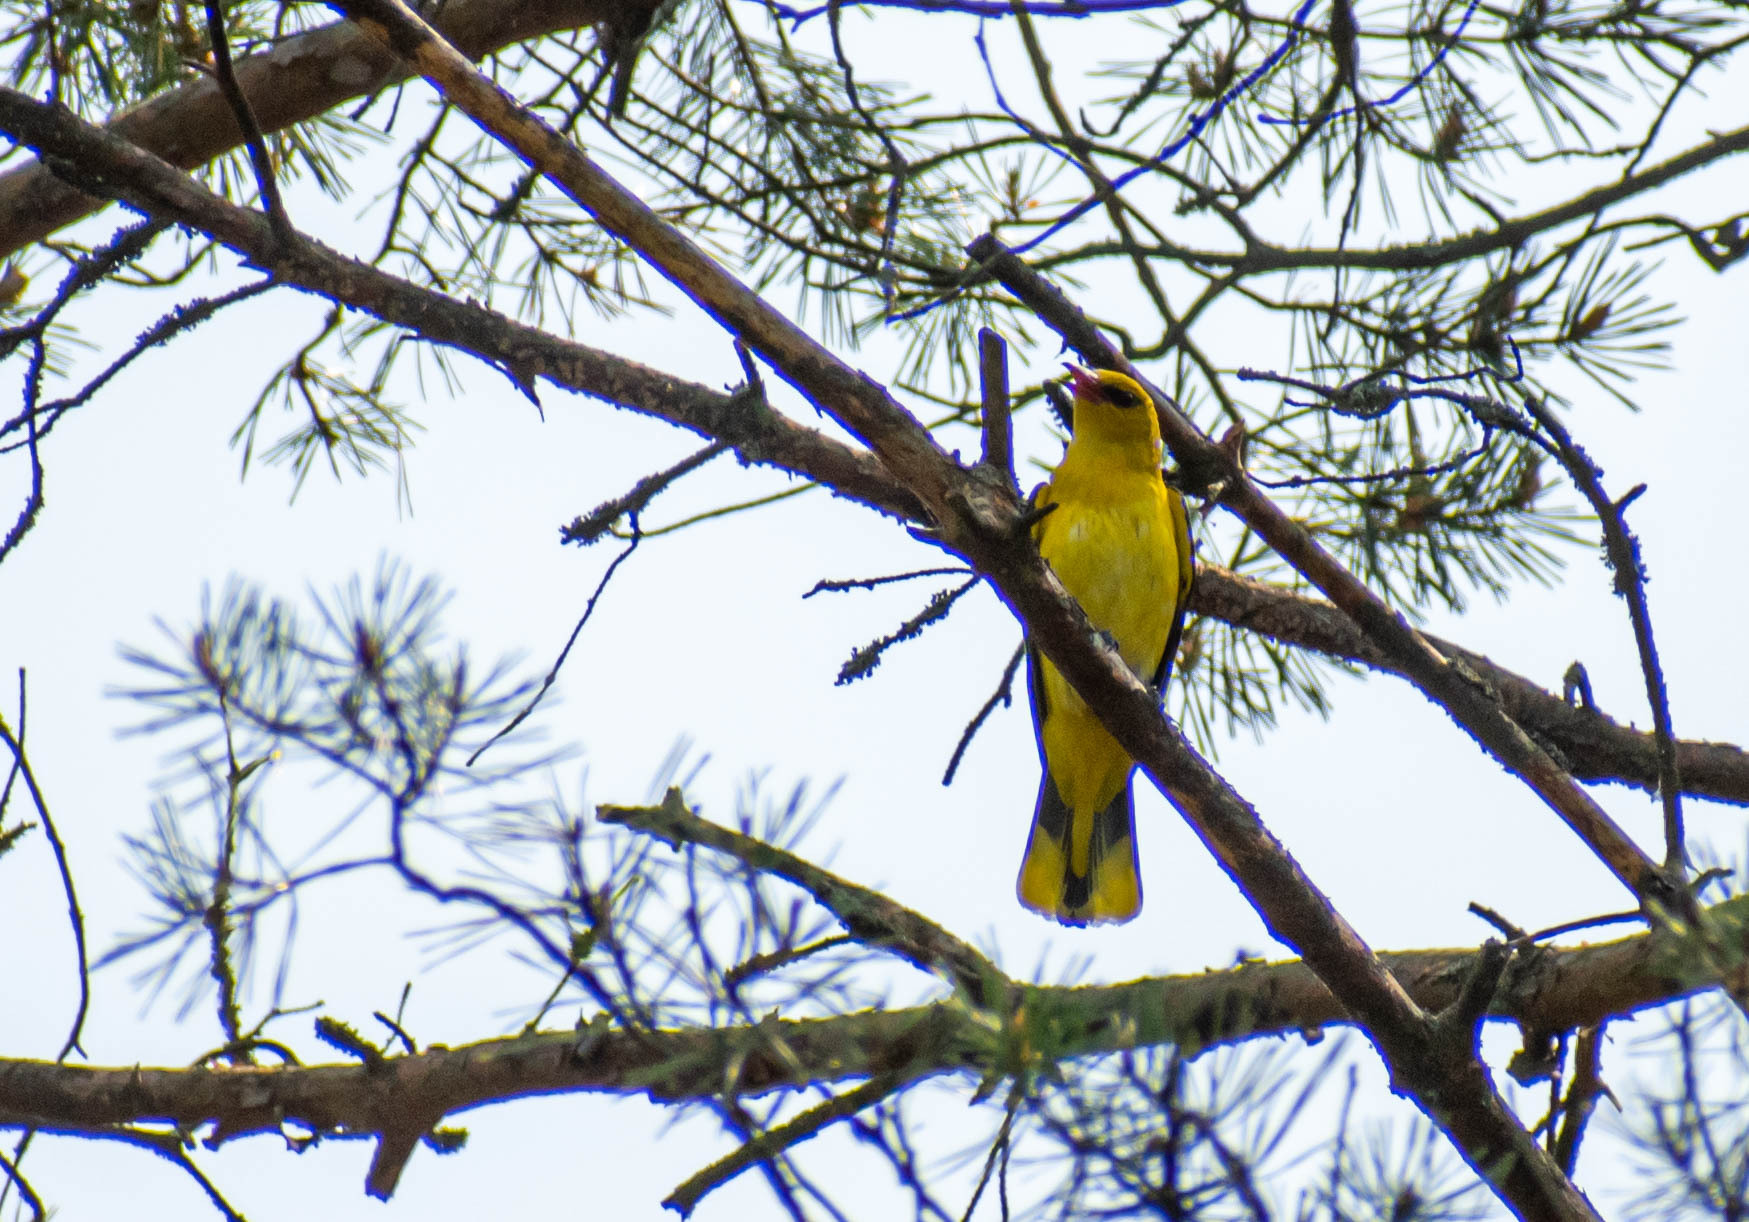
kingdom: Animalia
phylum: Chordata
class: Aves
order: Passeriformes
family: Oriolidae
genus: Oriolus
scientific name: Oriolus oriolus
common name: Eurasian golden oriole
